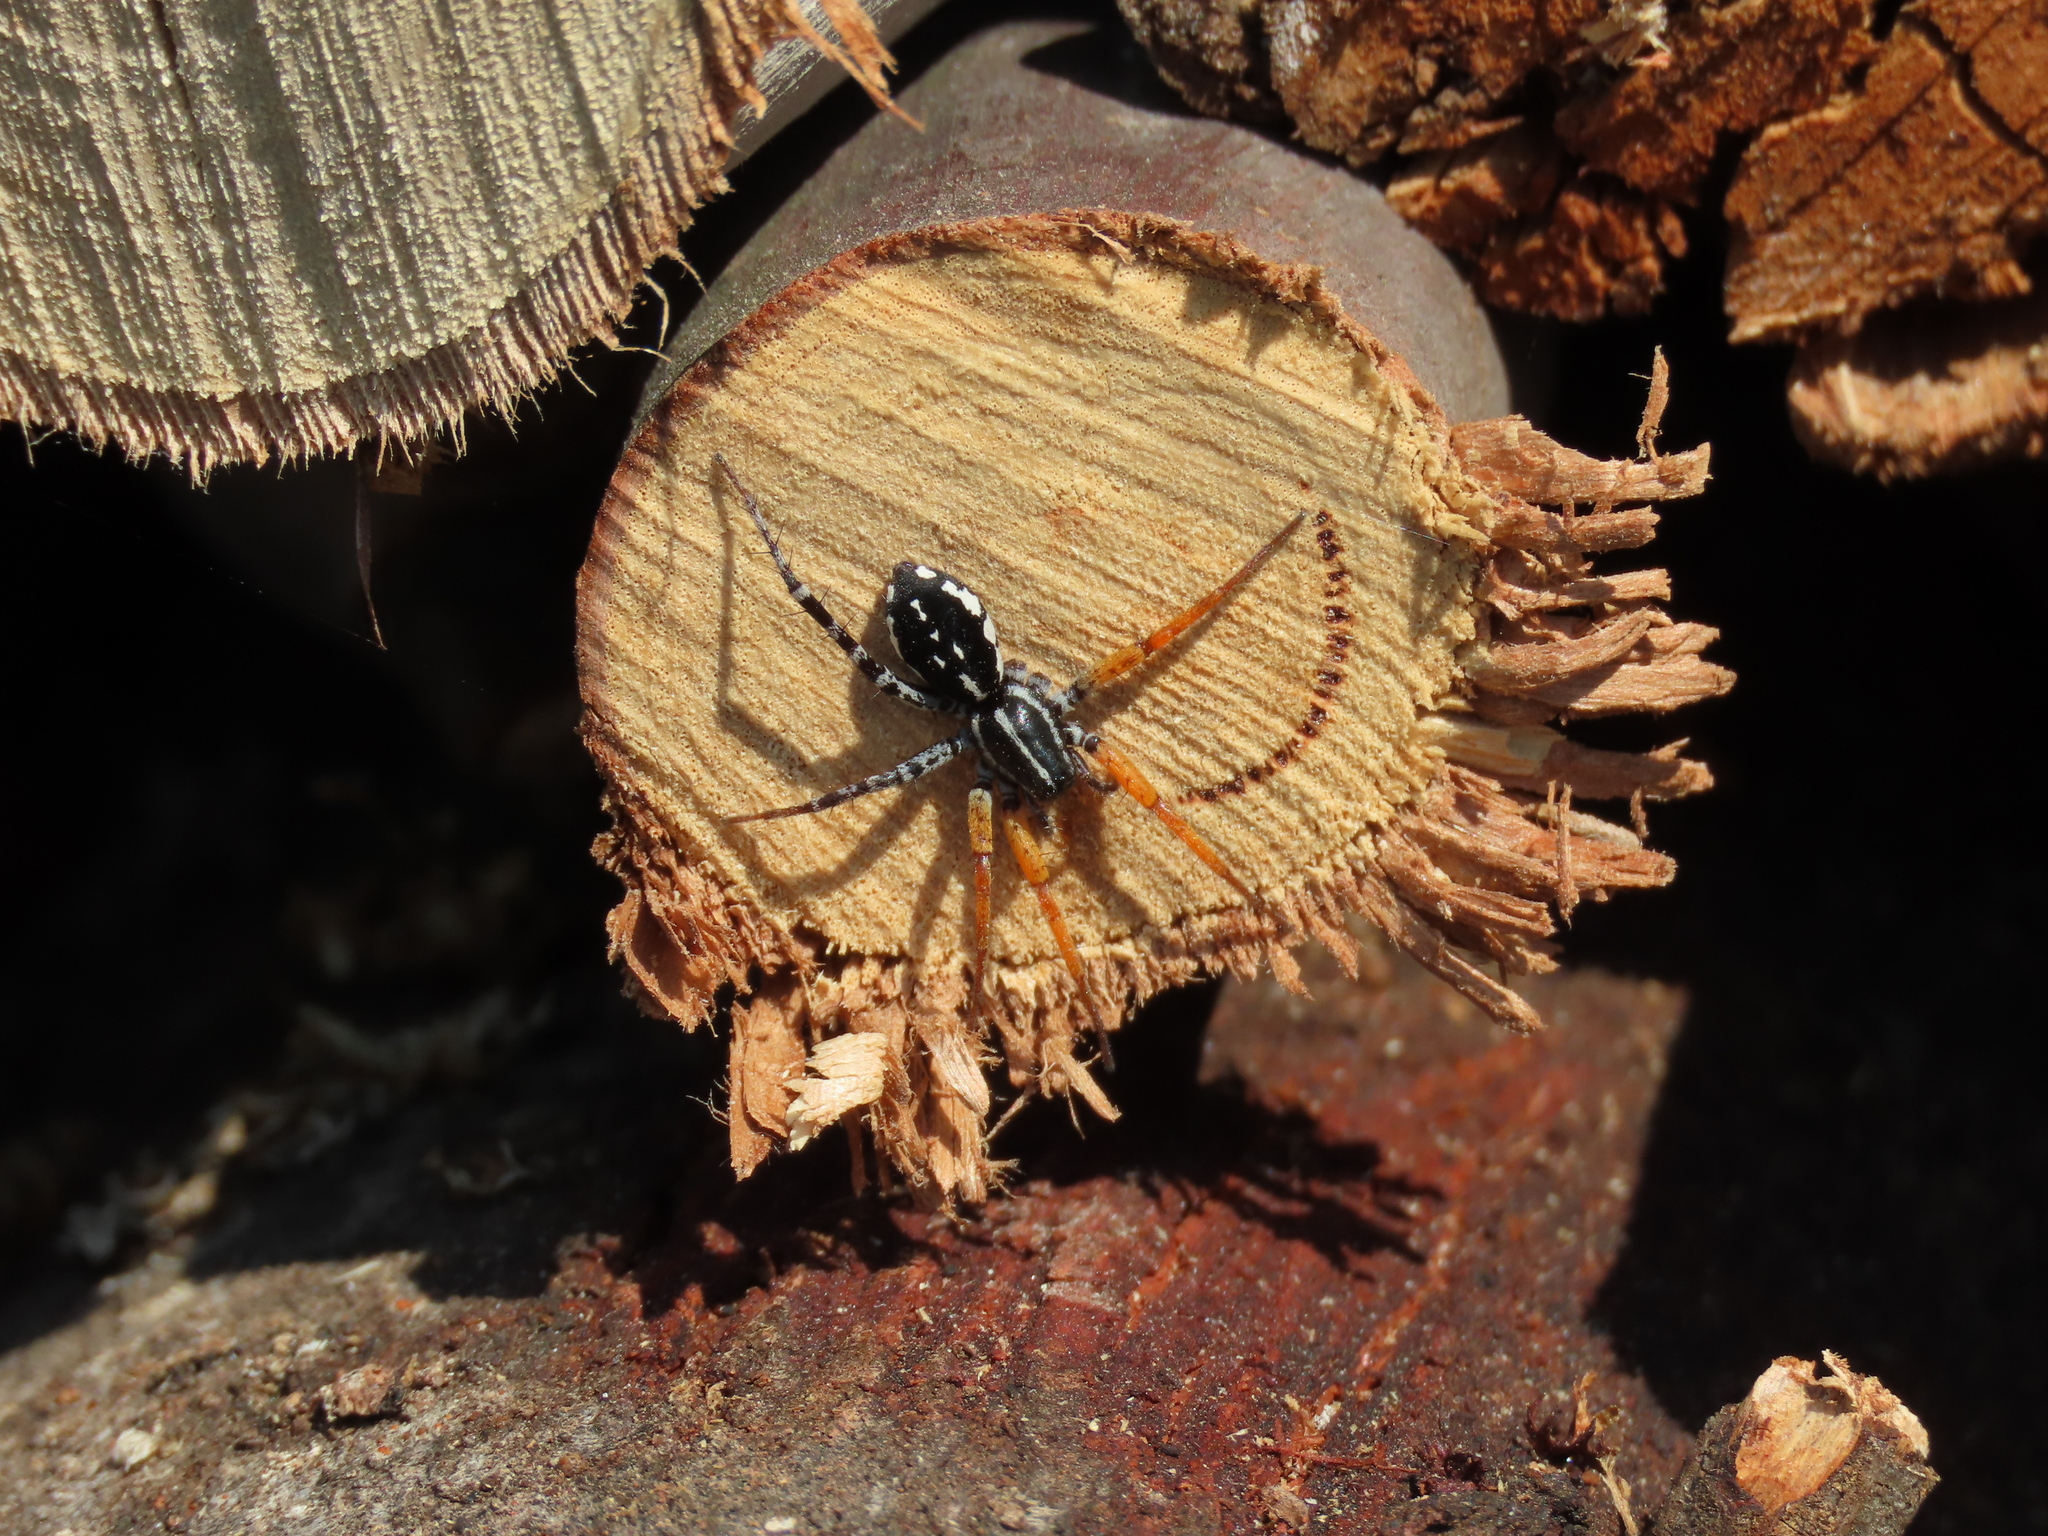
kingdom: Animalia
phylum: Arthropoda
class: Arachnida
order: Araneae
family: Corinnidae
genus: Nyssus
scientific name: Nyssus coloripes
